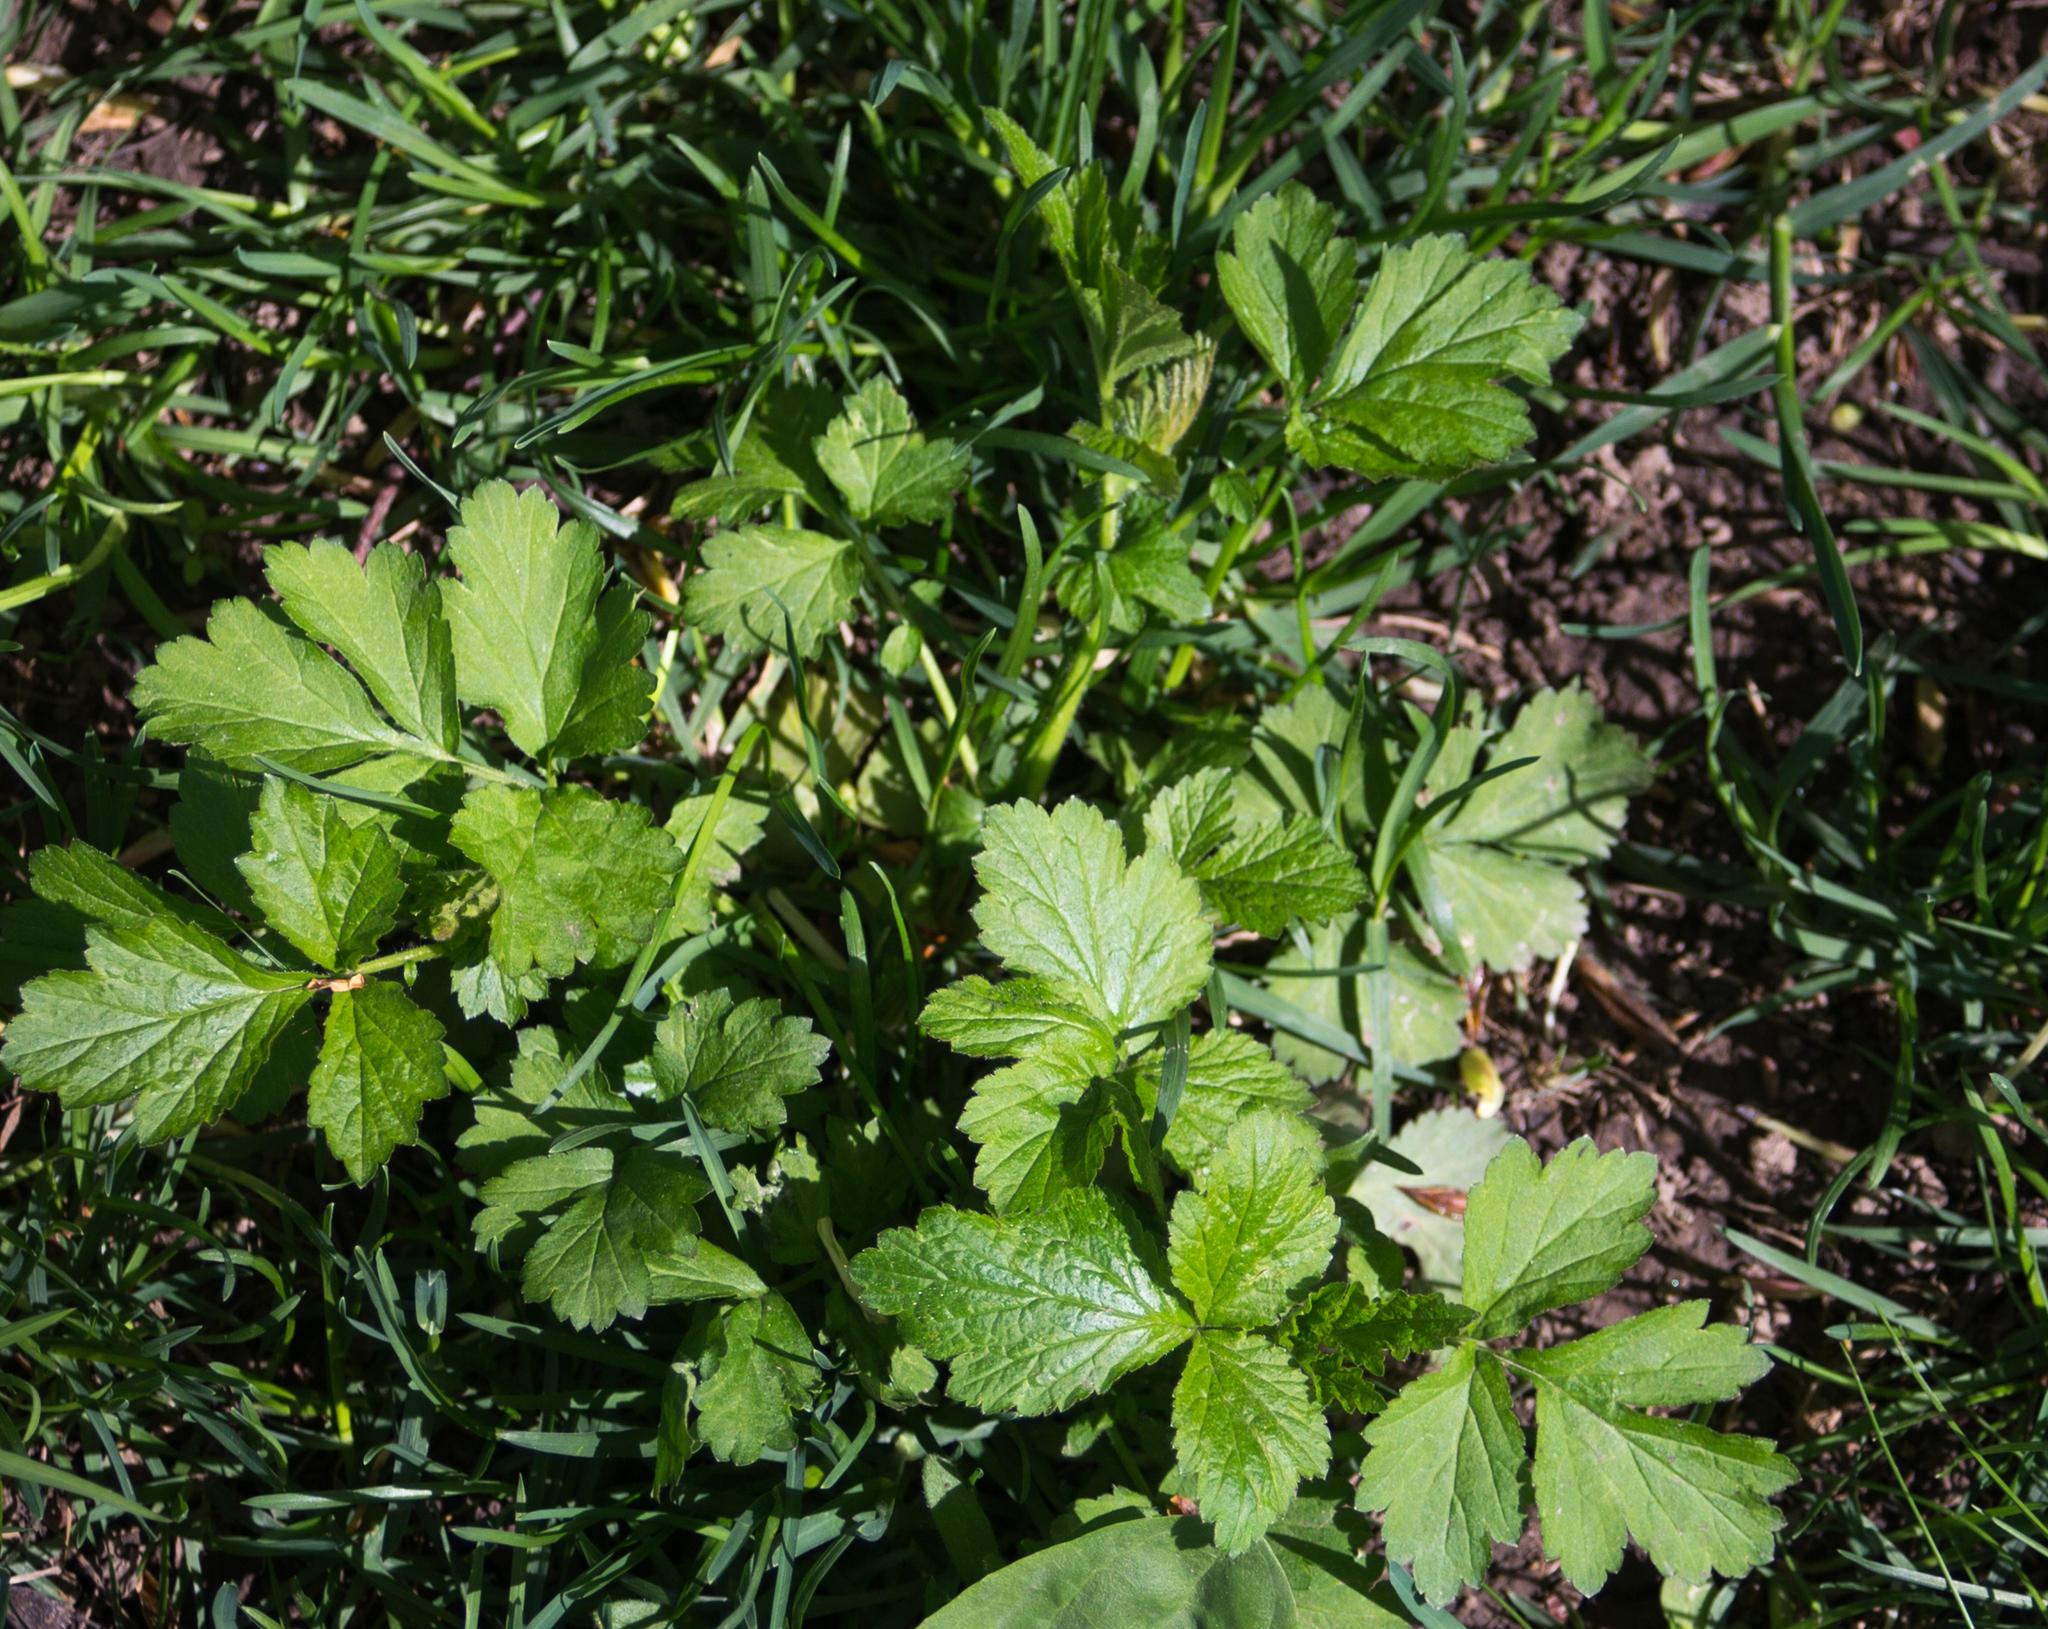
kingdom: Plantae
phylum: Tracheophyta
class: Magnoliopsida
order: Rosales
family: Rosaceae
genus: Geum
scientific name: Geum urbanum
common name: Wood avens
